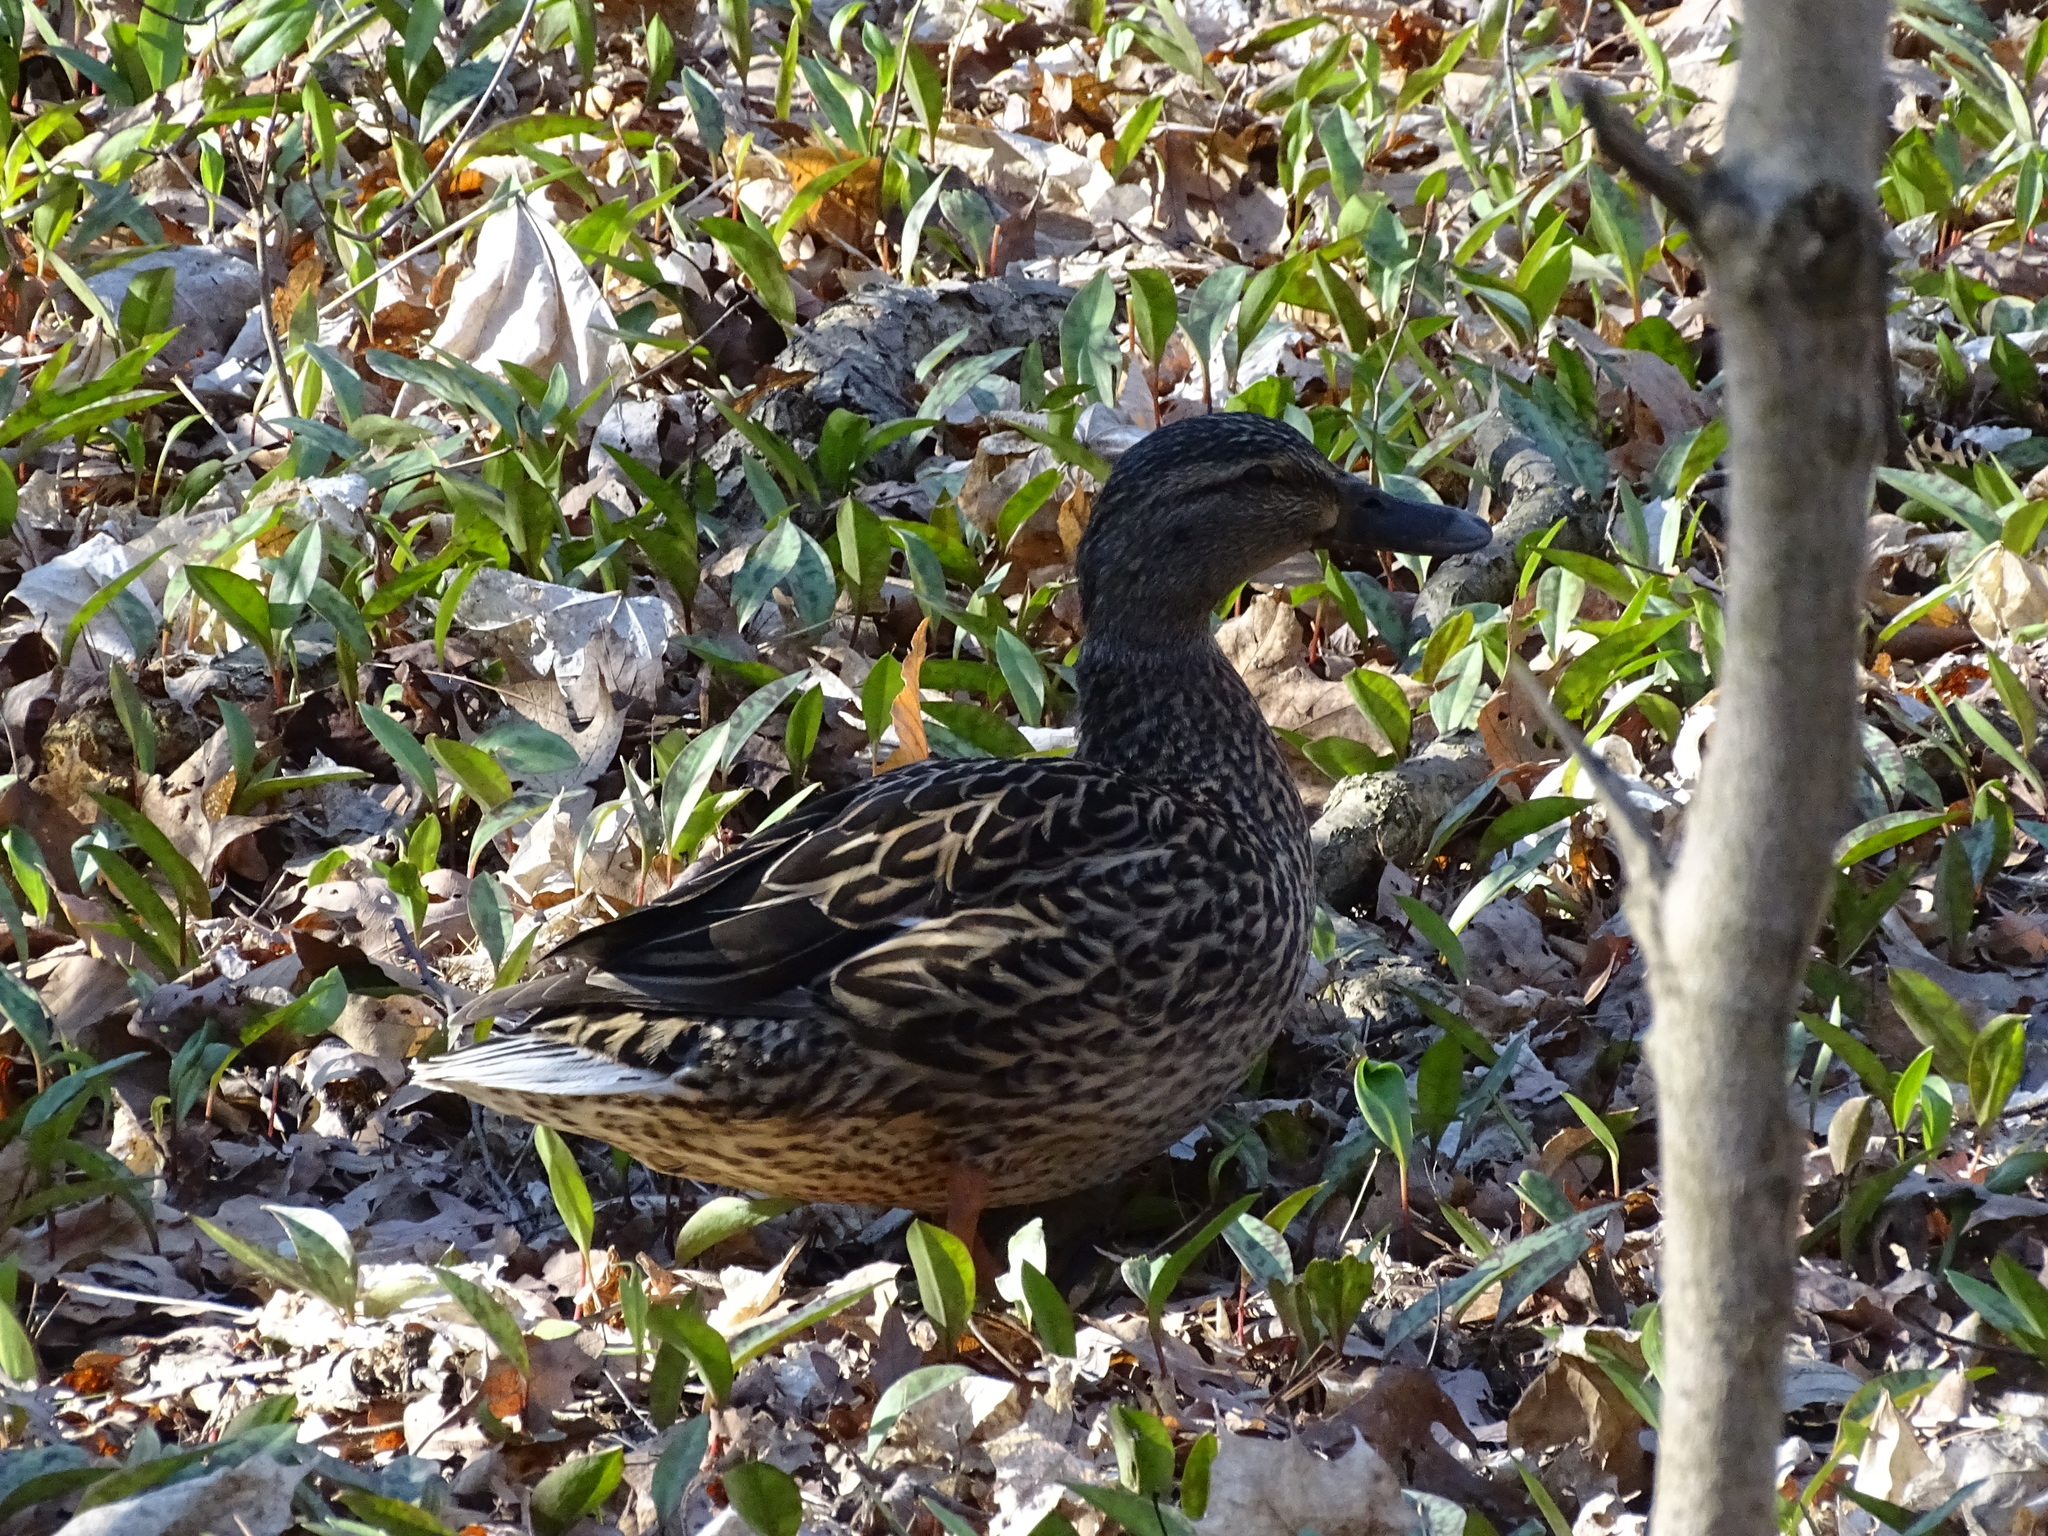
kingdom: Animalia
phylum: Chordata
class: Aves
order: Anseriformes
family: Anatidae
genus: Anas
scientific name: Anas platyrhynchos
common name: Mallard
